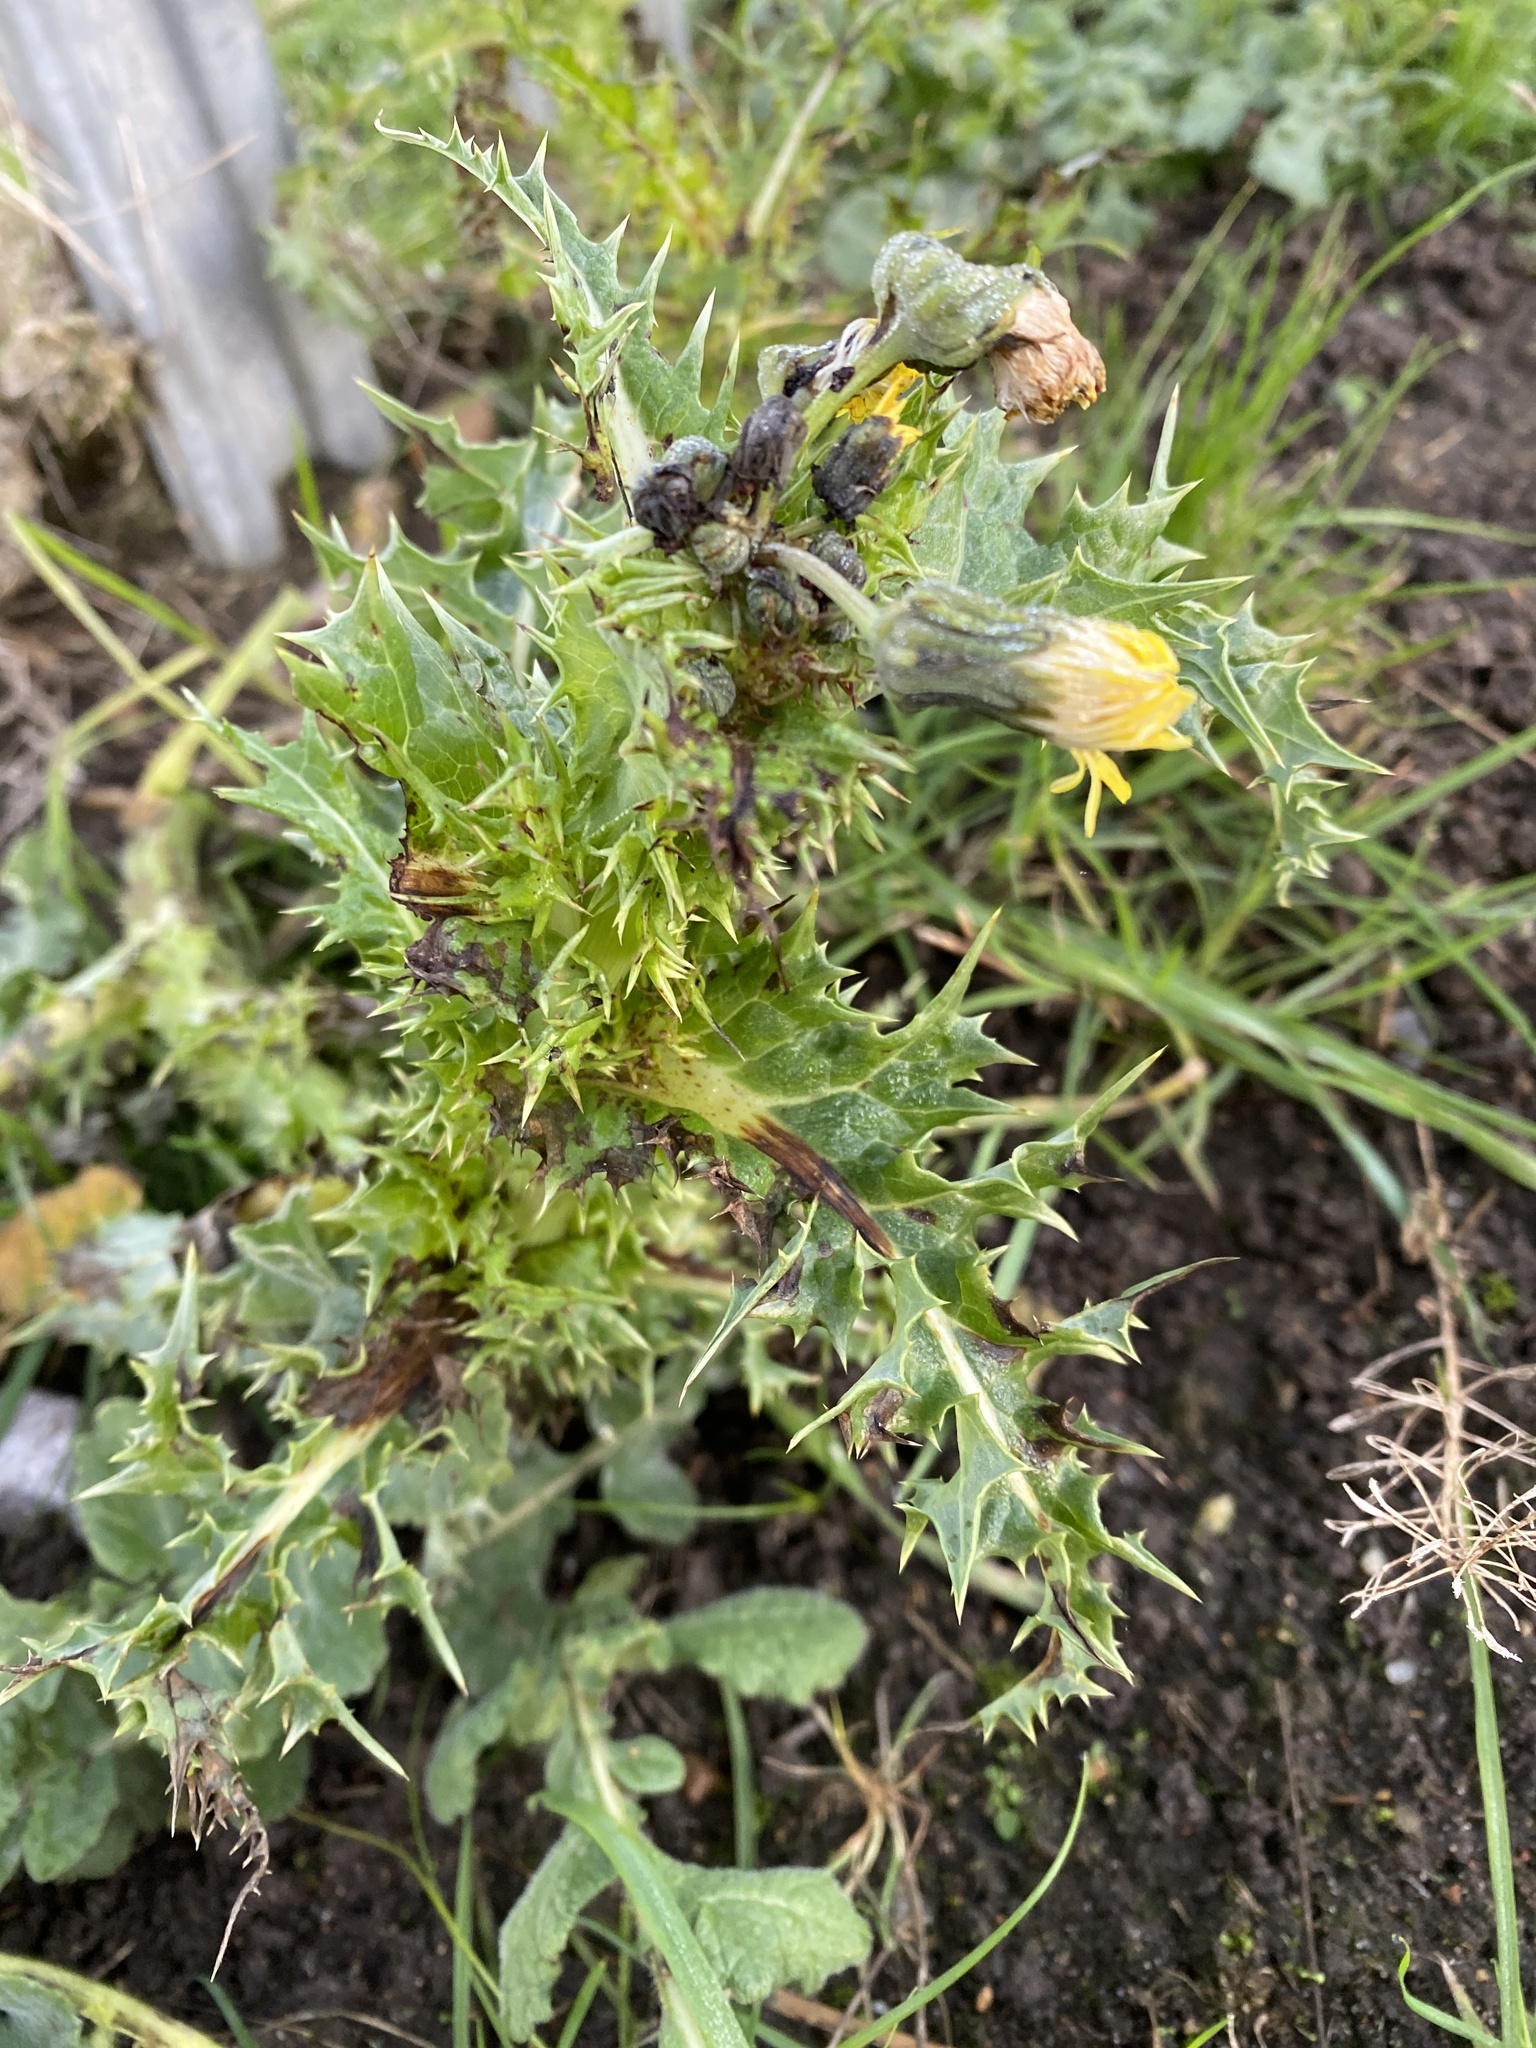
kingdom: Plantae
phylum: Tracheophyta
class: Magnoliopsida
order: Asterales
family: Asteraceae
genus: Sonchus
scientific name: Sonchus asper
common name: Prickly sow-thistle
